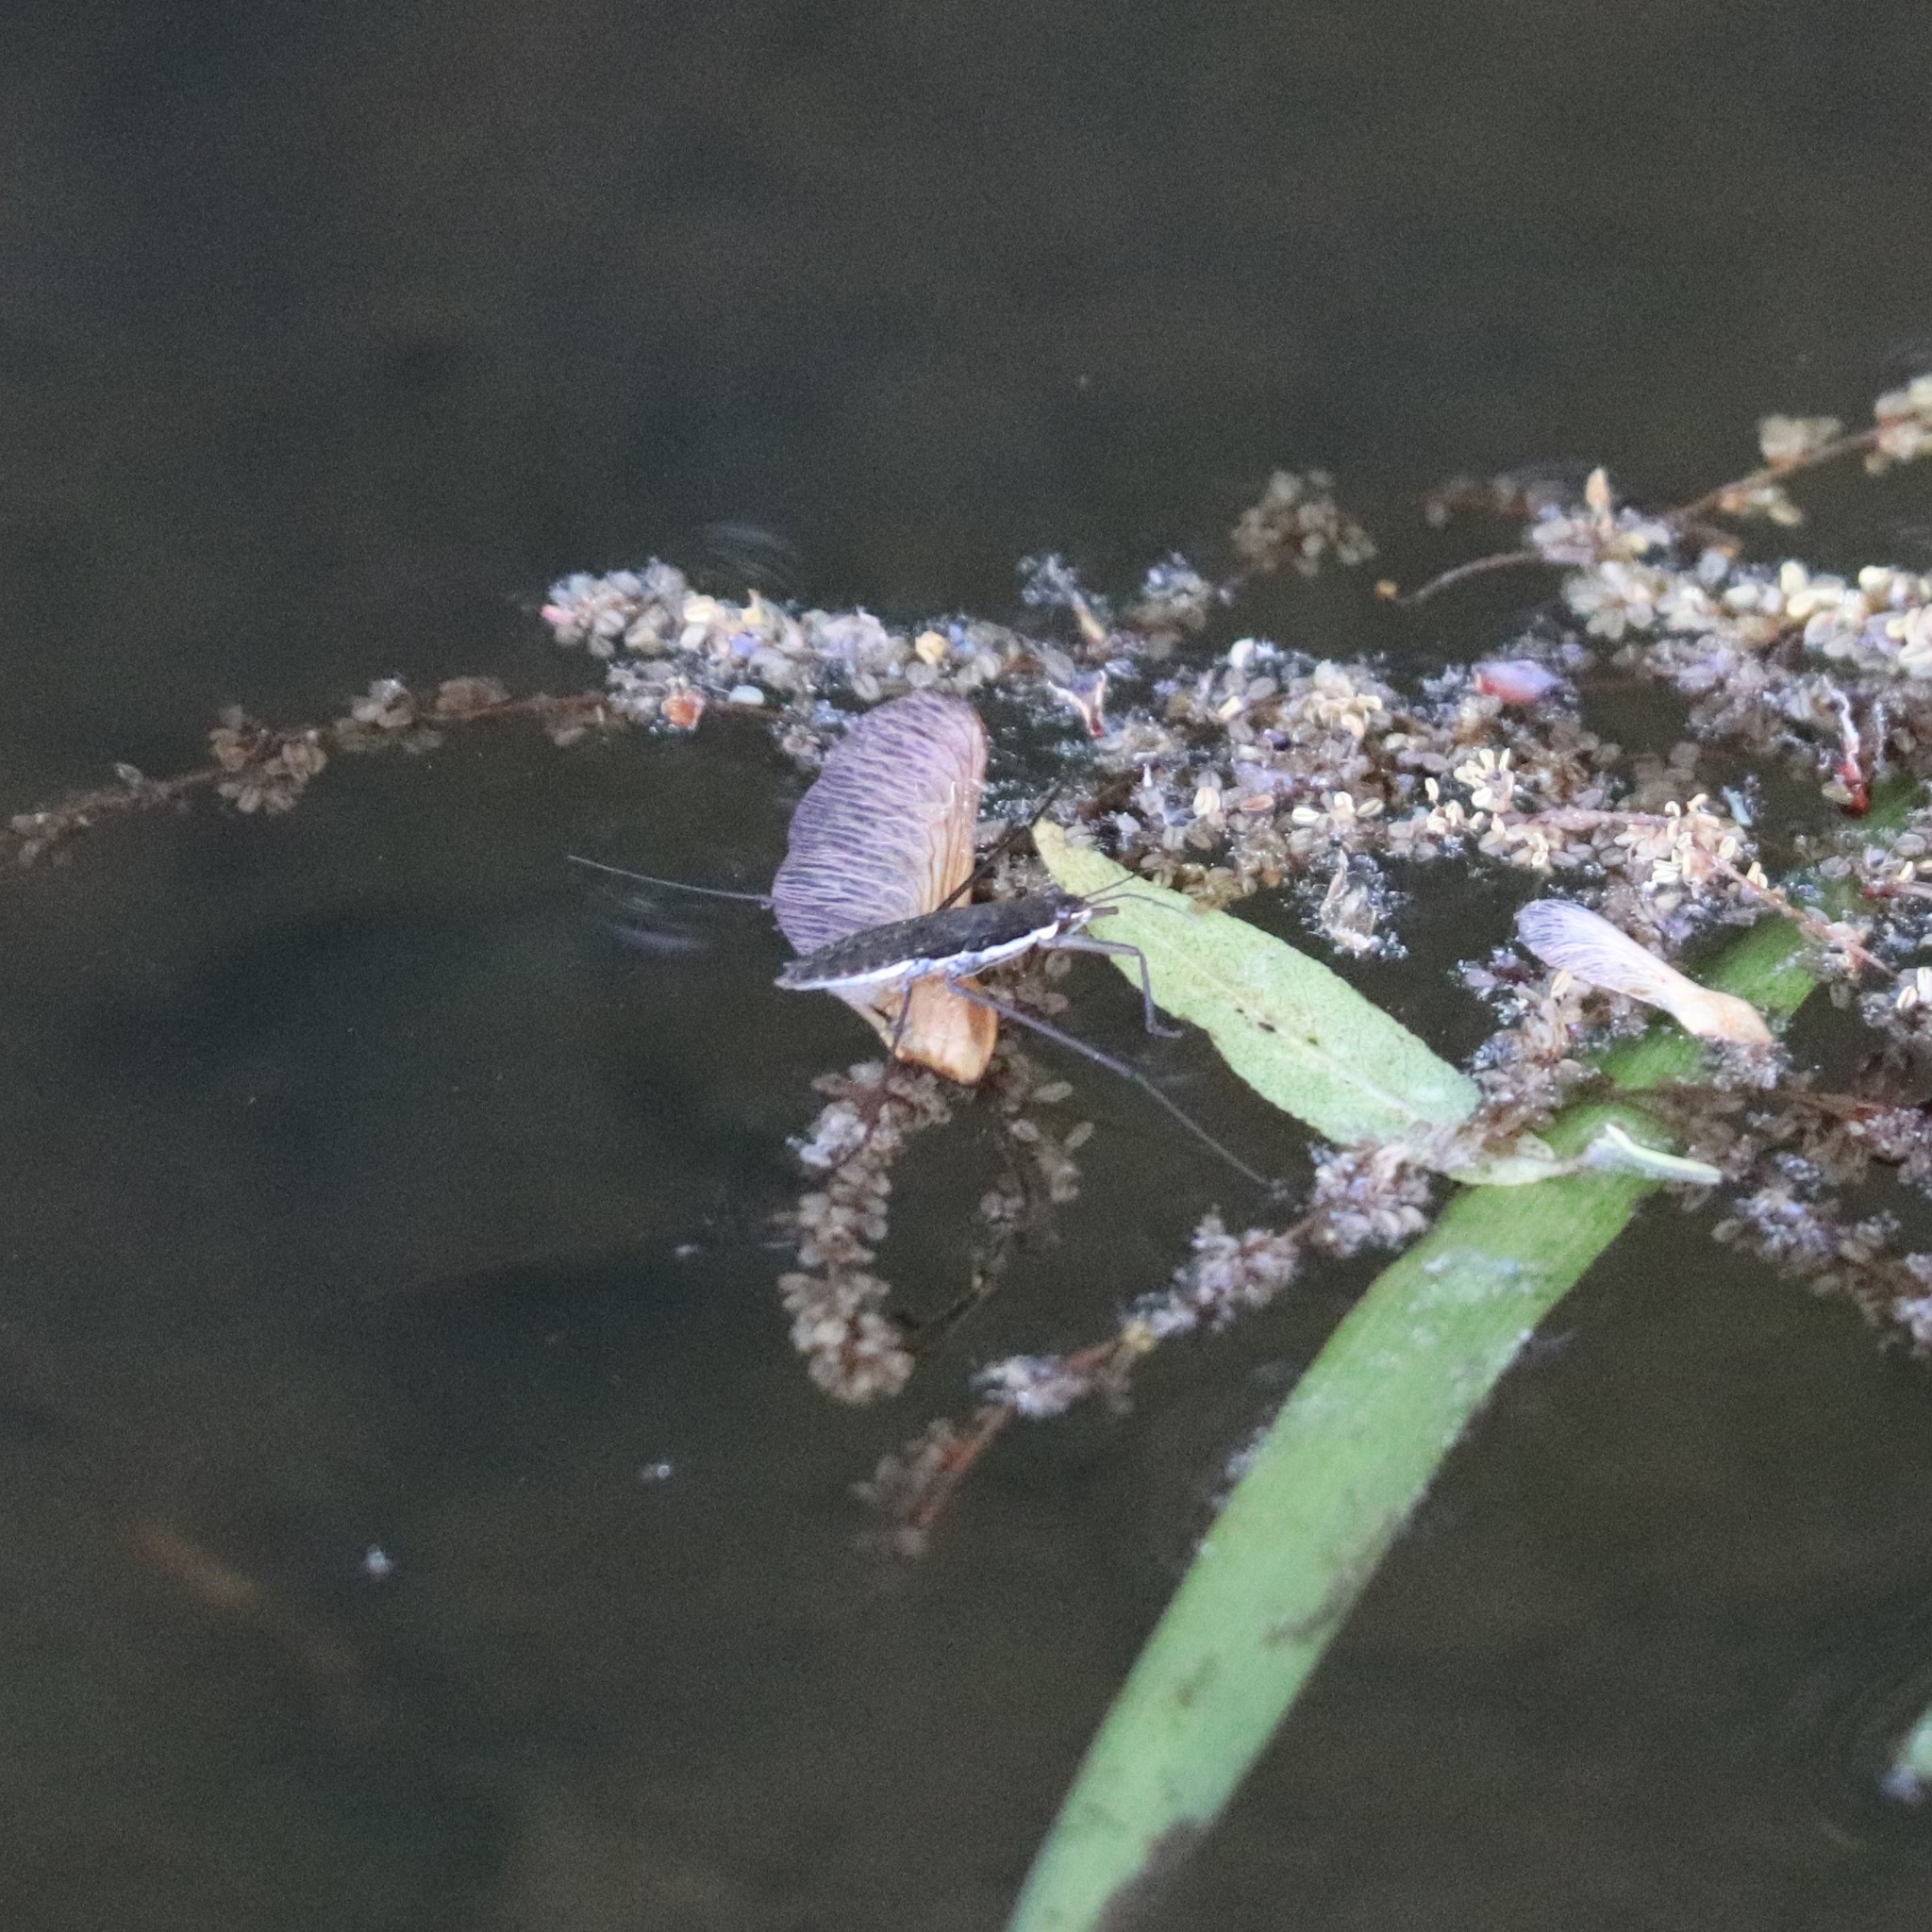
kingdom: Animalia
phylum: Arthropoda
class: Insecta
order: Hemiptera
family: Gerridae
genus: Aquarius
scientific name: Aquarius remigis
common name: Common water strider
